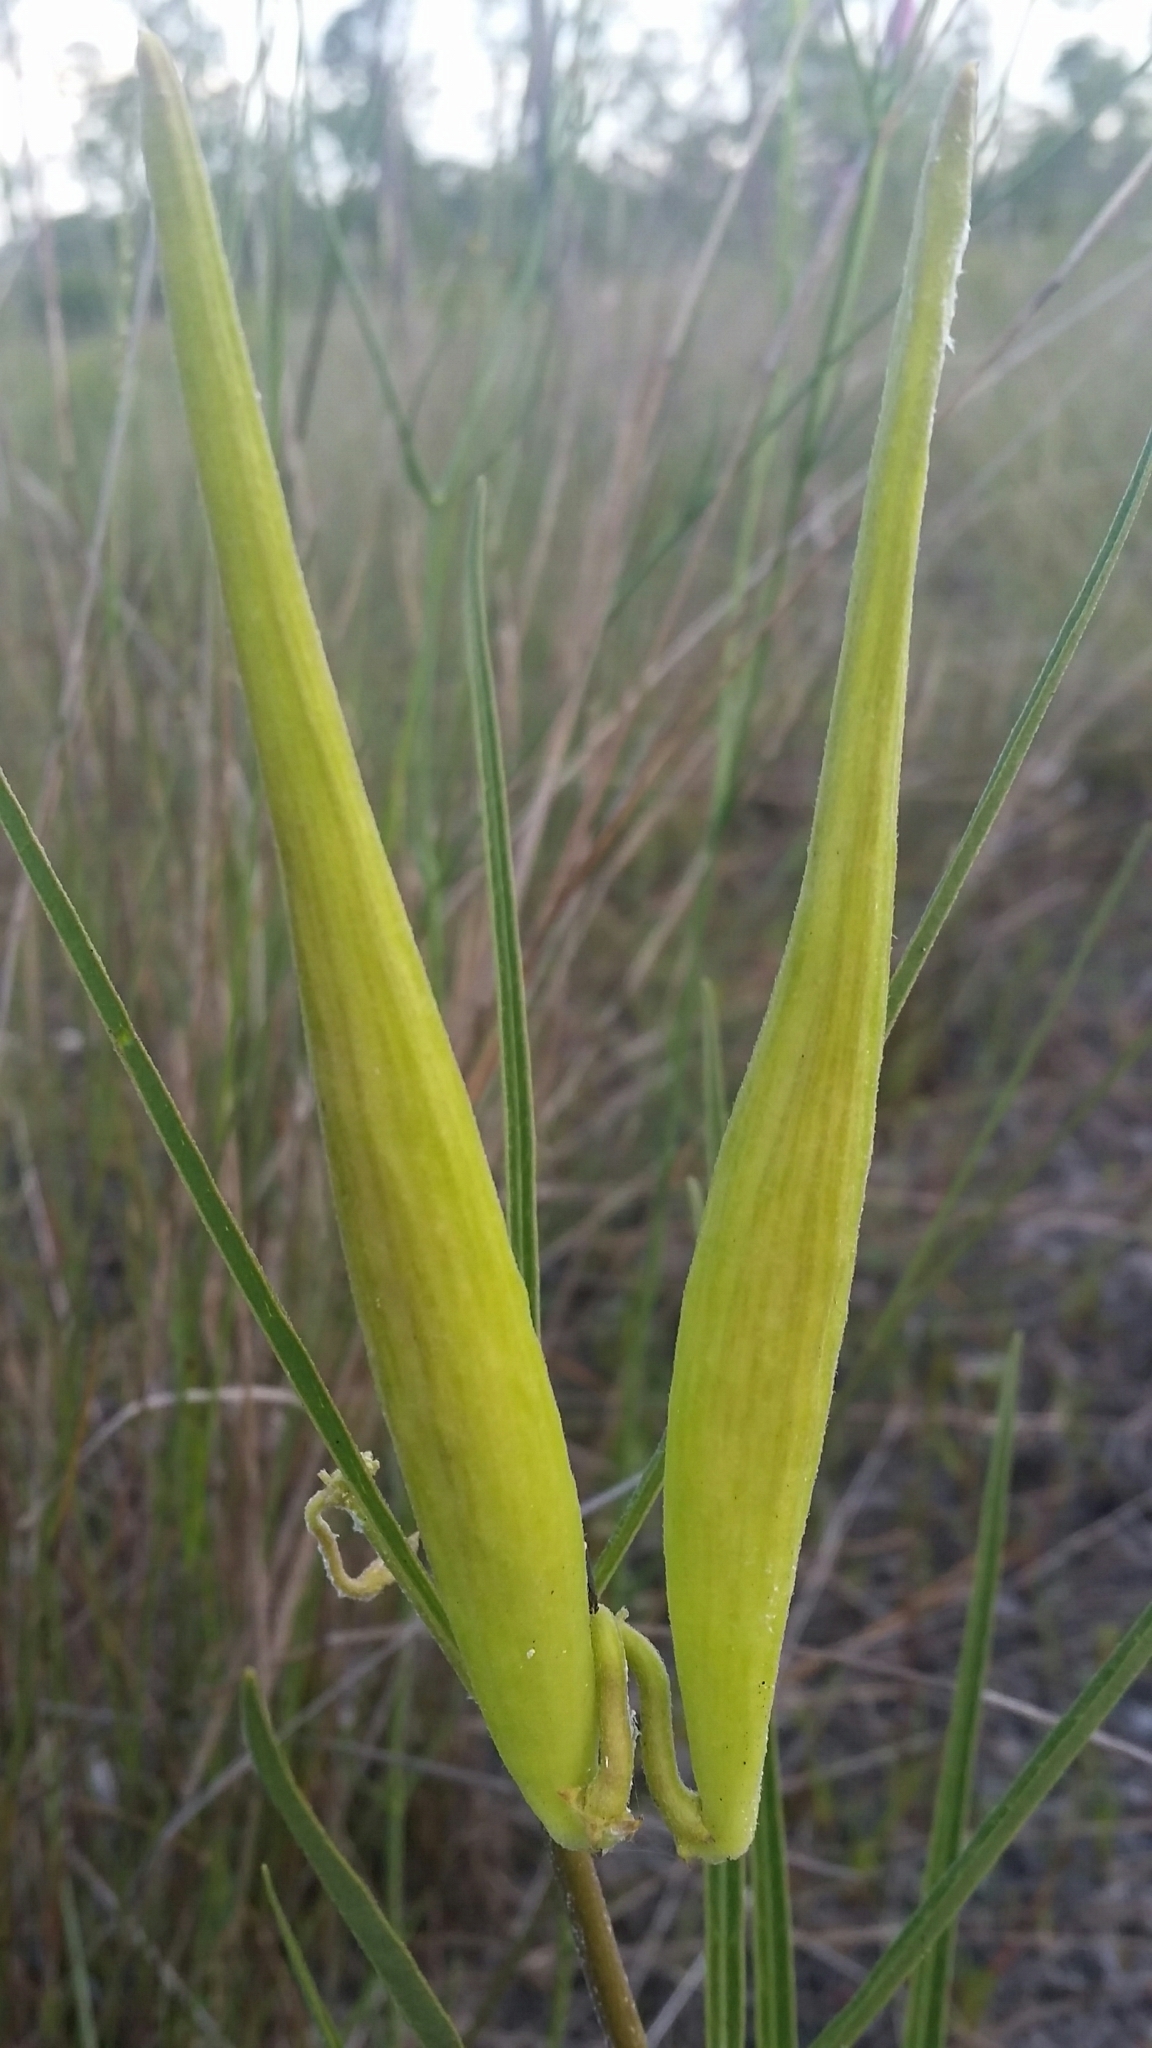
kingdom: Plantae
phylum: Tracheophyta
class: Magnoliopsida
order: Gentianales
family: Apocynaceae
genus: Asclepias
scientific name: Asclepias longifolia
